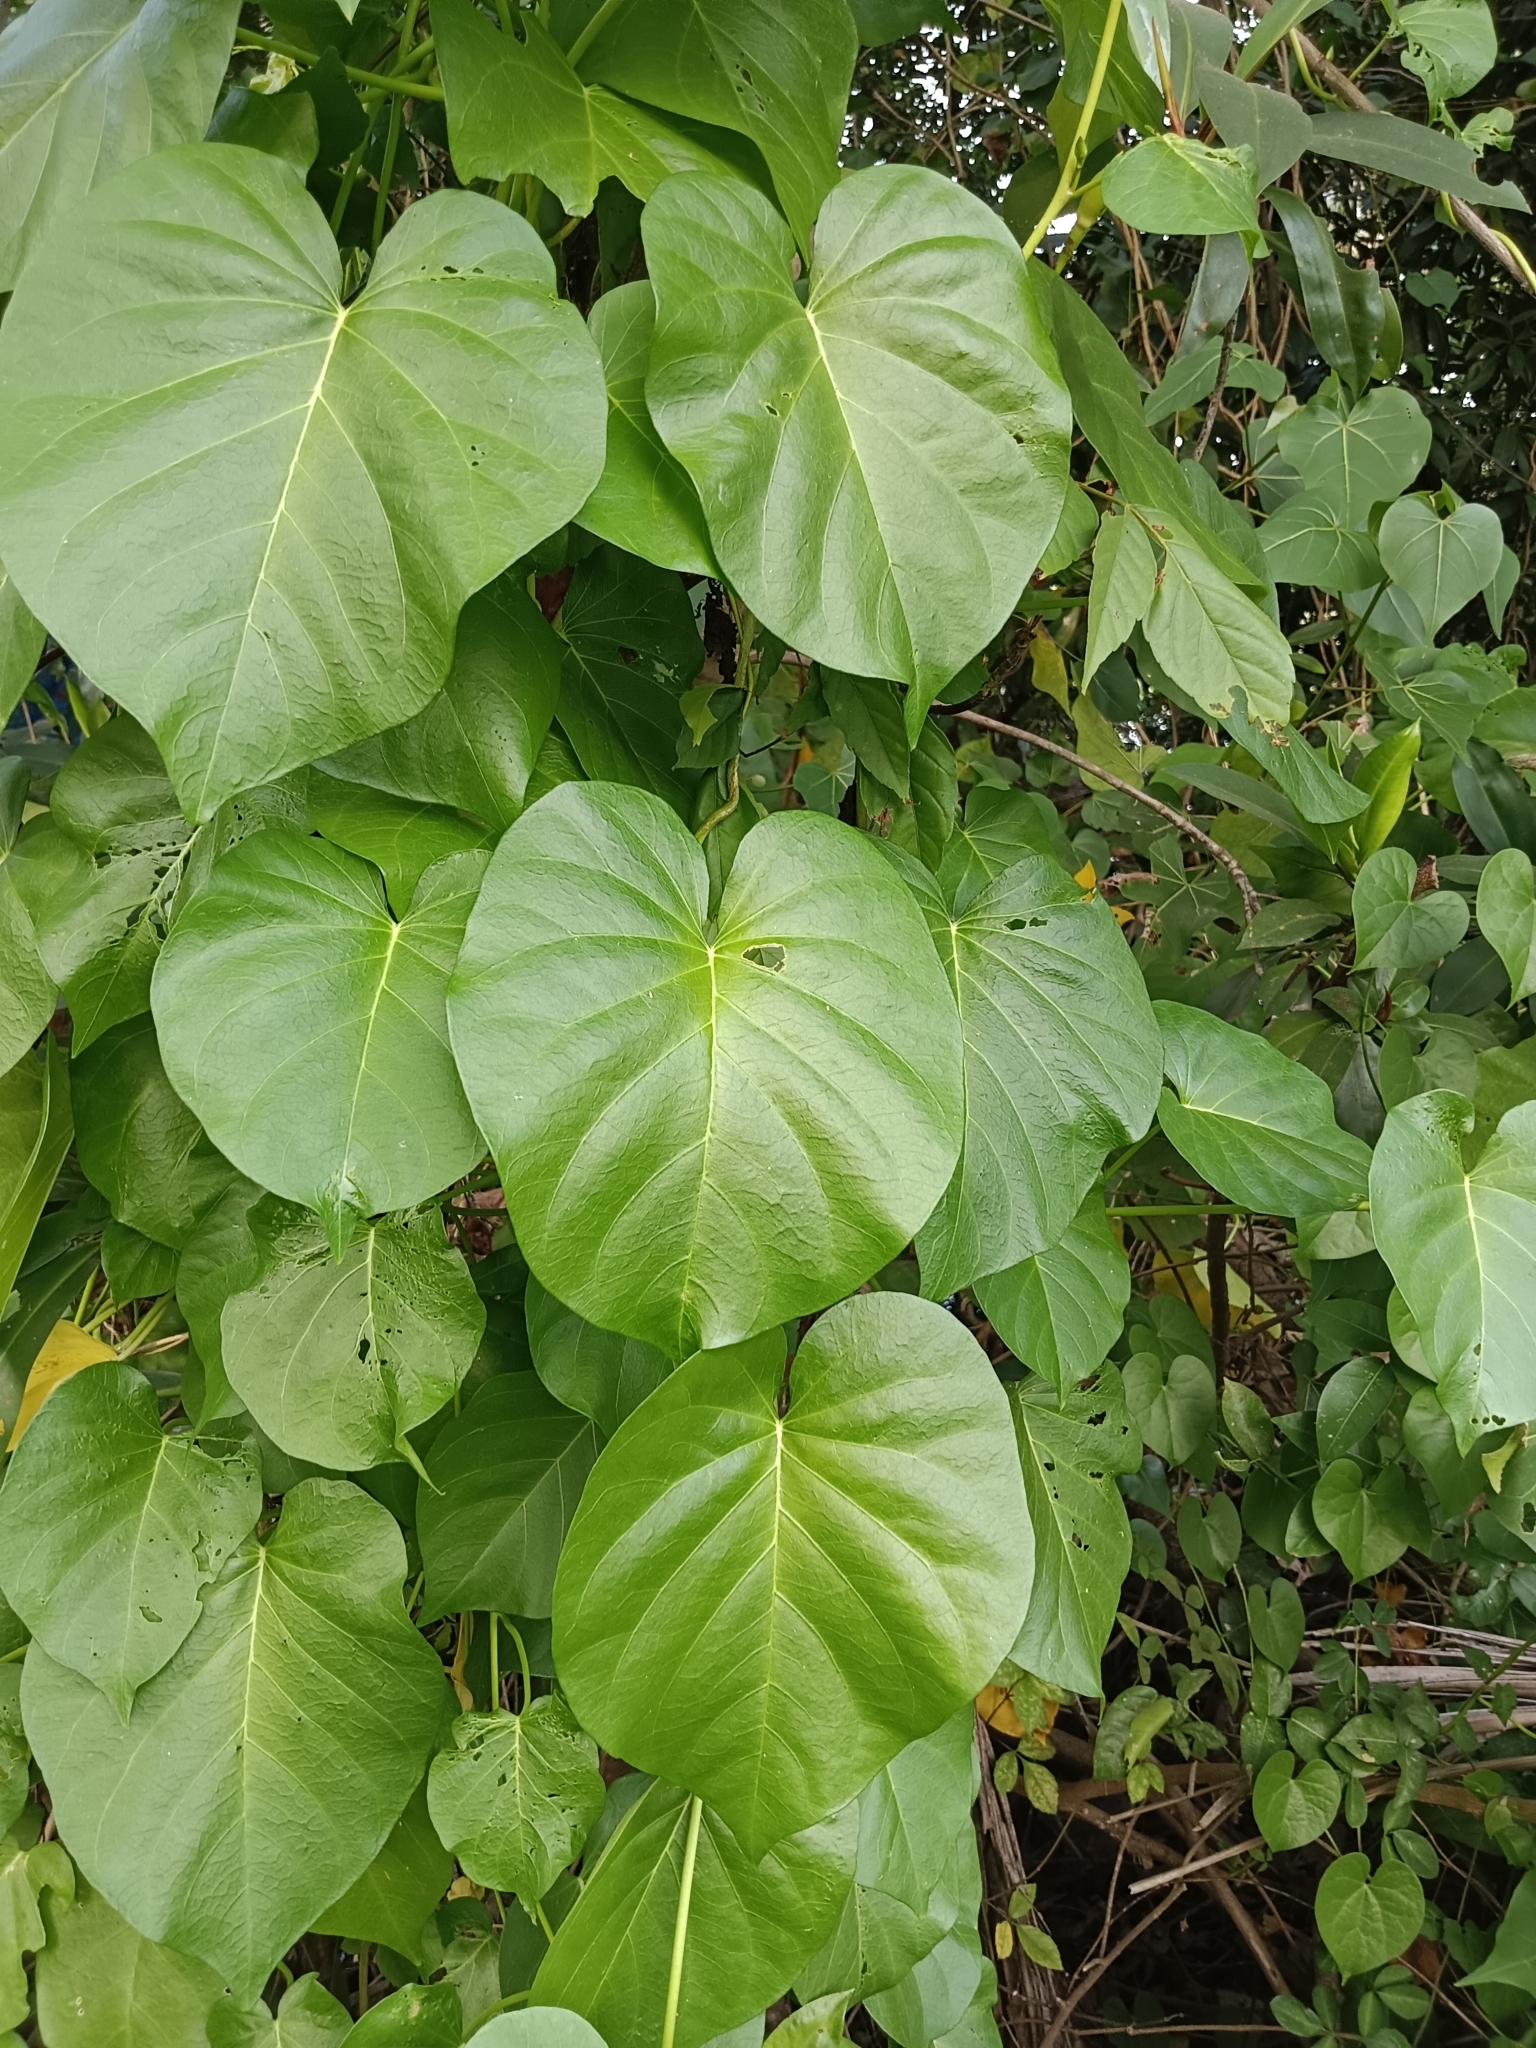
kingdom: Plantae
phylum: Tracheophyta
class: Magnoliopsida
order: Solanales
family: Convolvulaceae
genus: Ipomoea
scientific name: Ipomoea violacea
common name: Beach moonflower
